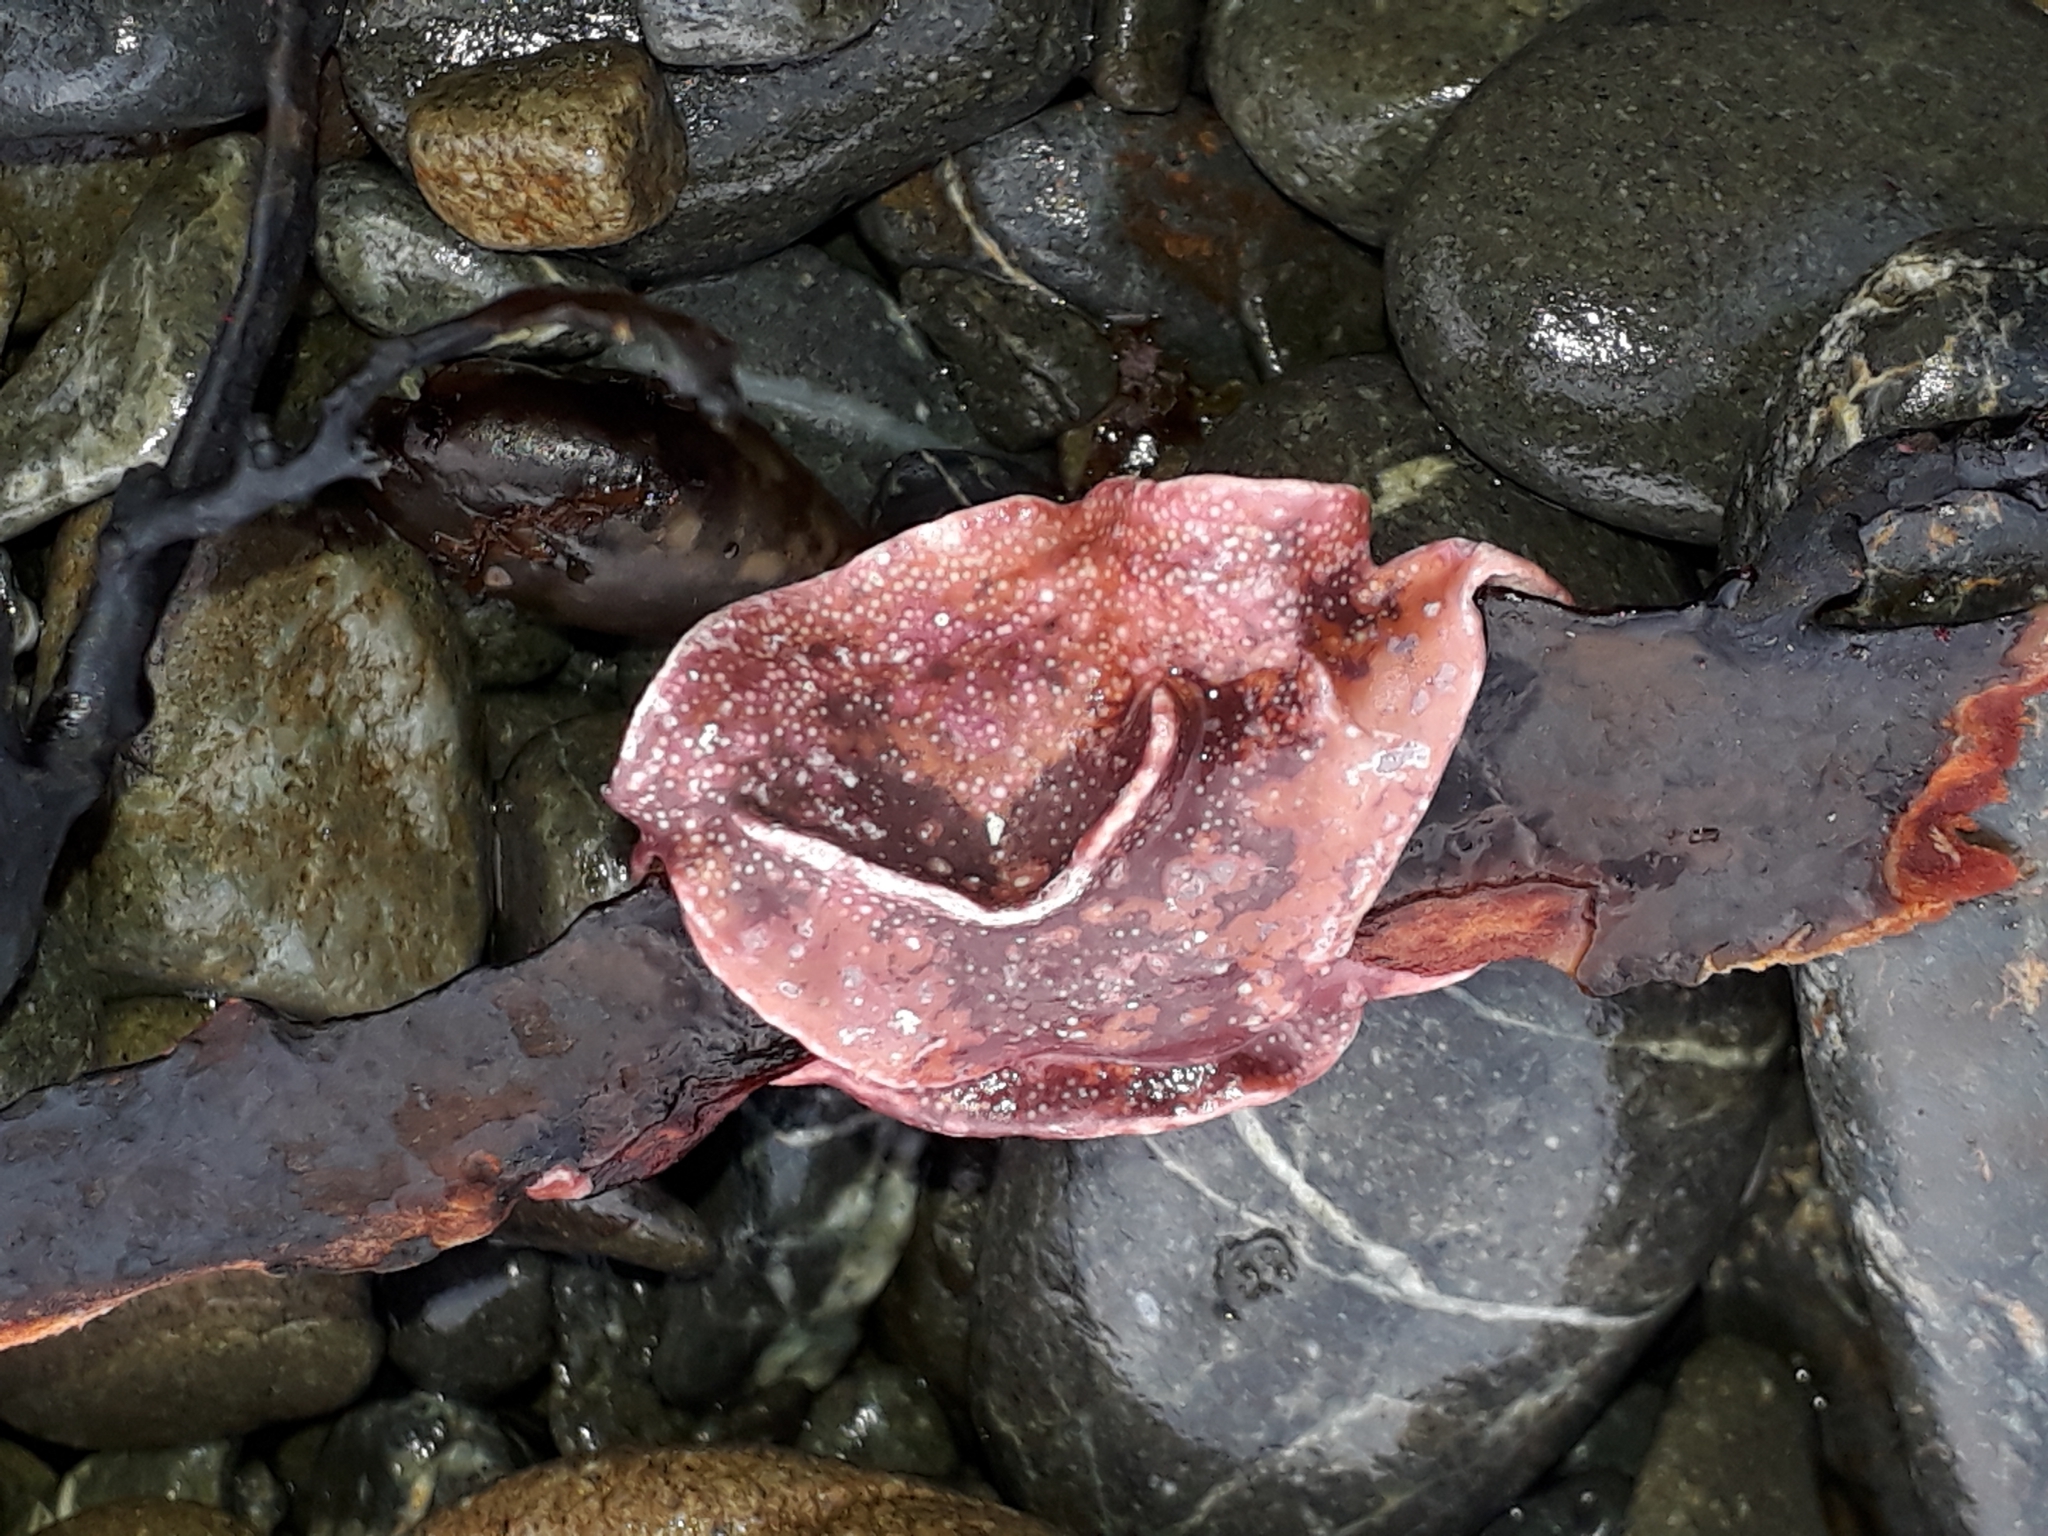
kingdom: Plantae
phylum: Rhodophyta
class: Florideophyceae
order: Corallinales
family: Lithophyllaceae
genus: Lithophyllum
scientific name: Lithophyllum carpophylli
